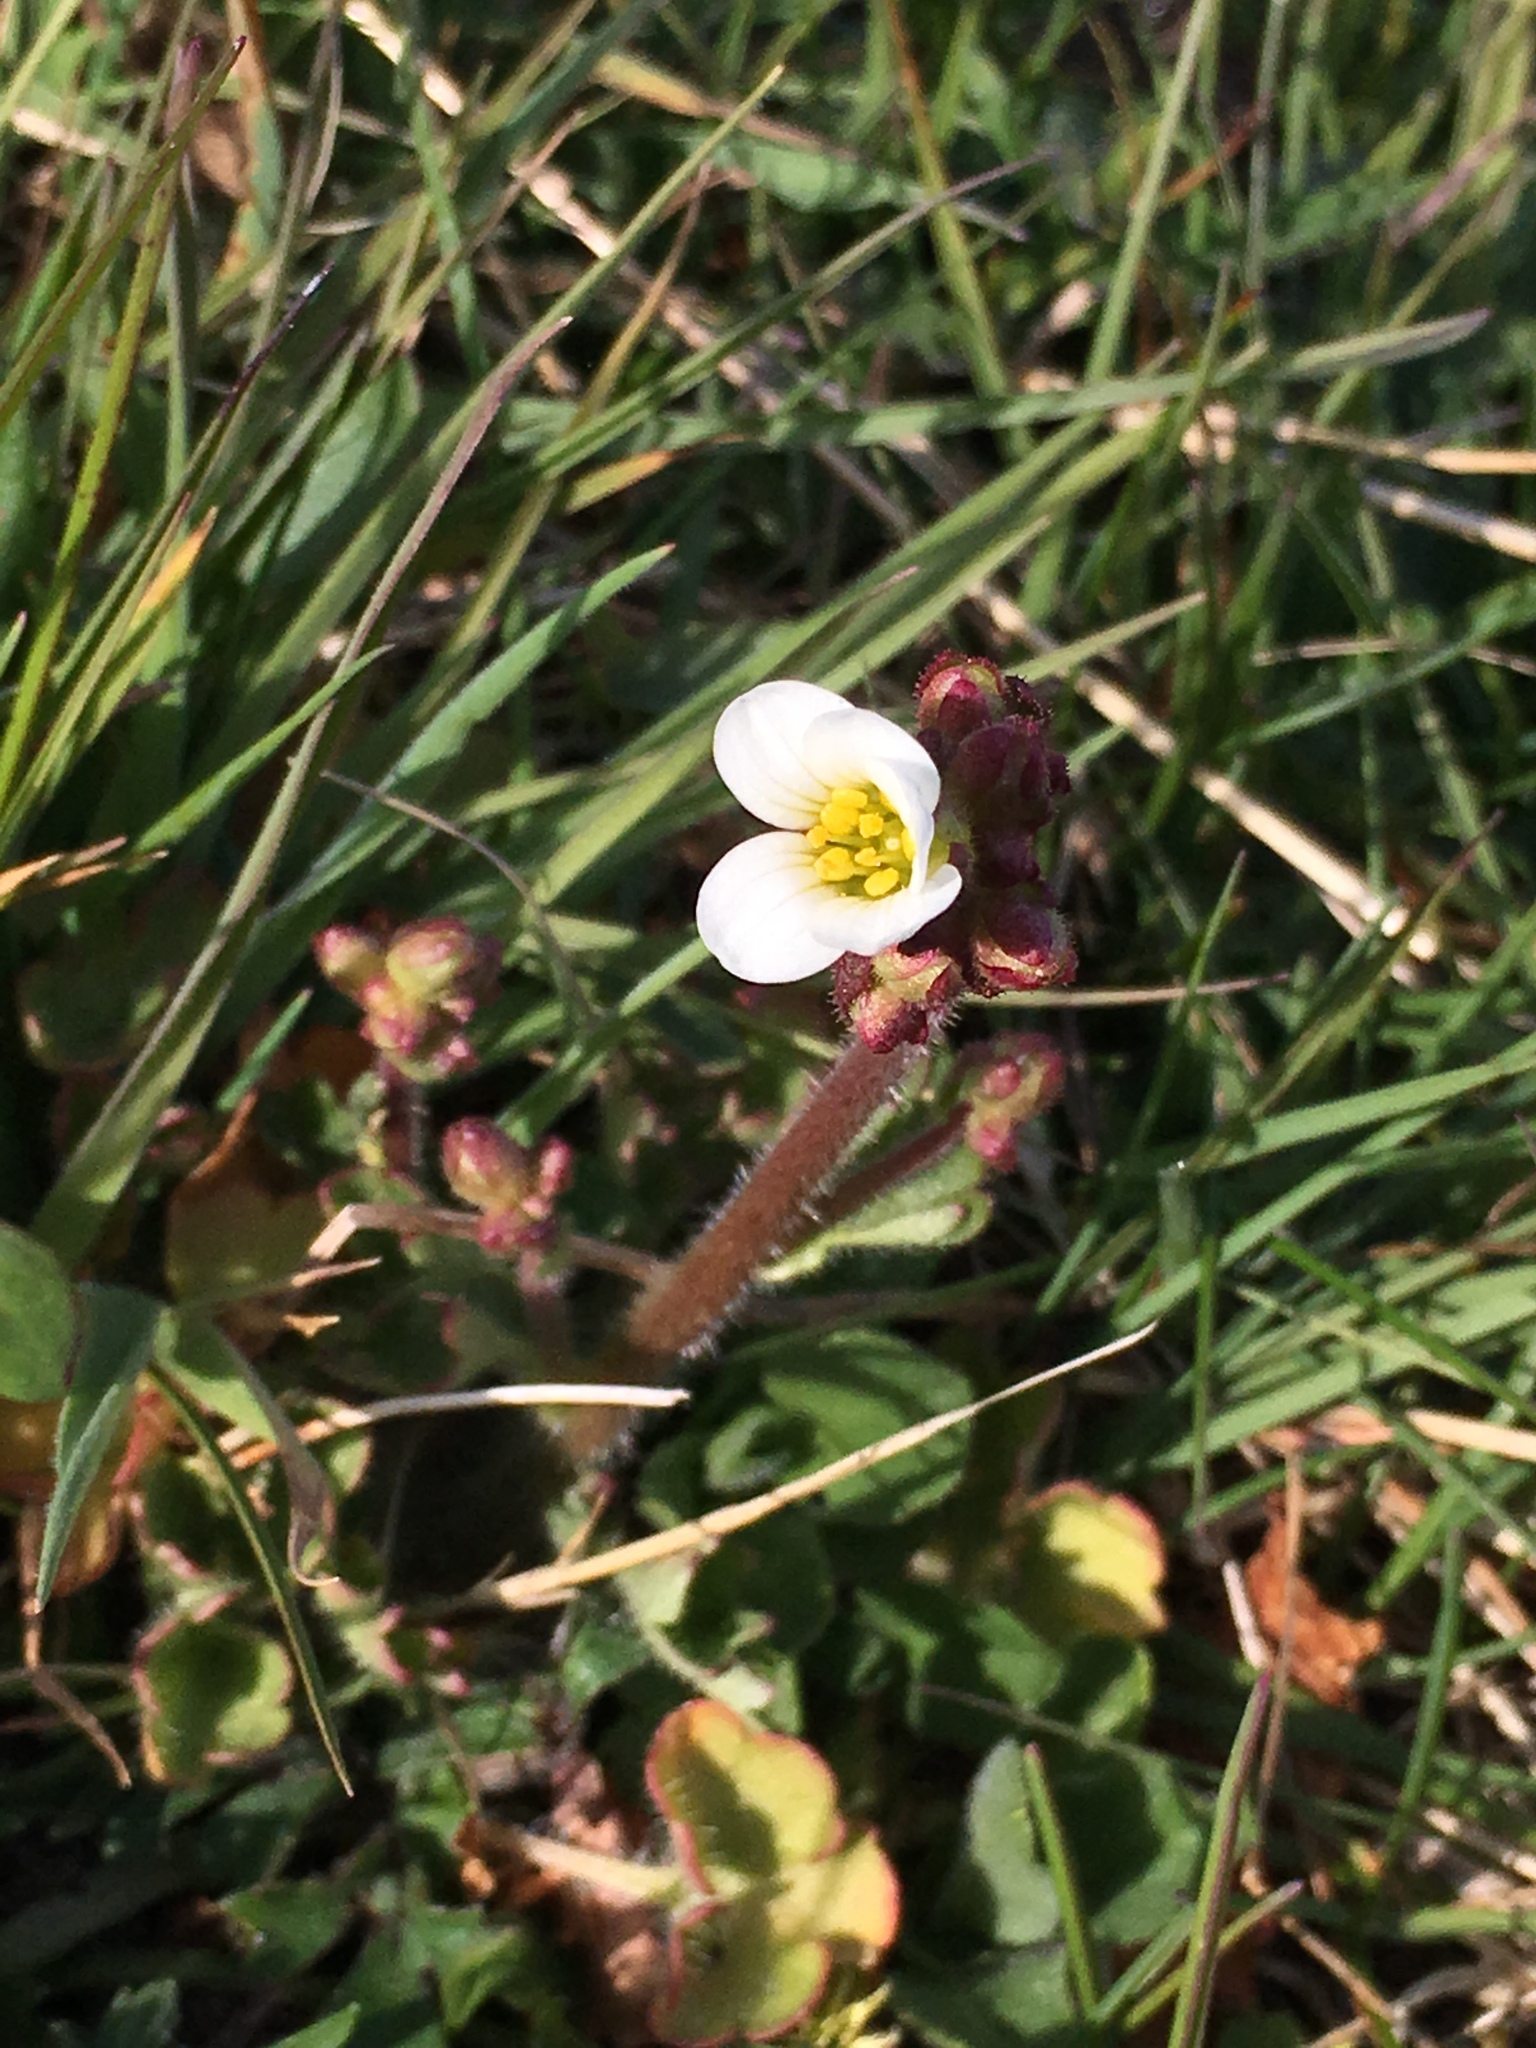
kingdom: Plantae
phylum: Tracheophyta
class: Magnoliopsida
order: Saxifragales
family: Saxifragaceae
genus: Saxifraga
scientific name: Saxifraga granulata
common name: Meadow saxifrage
